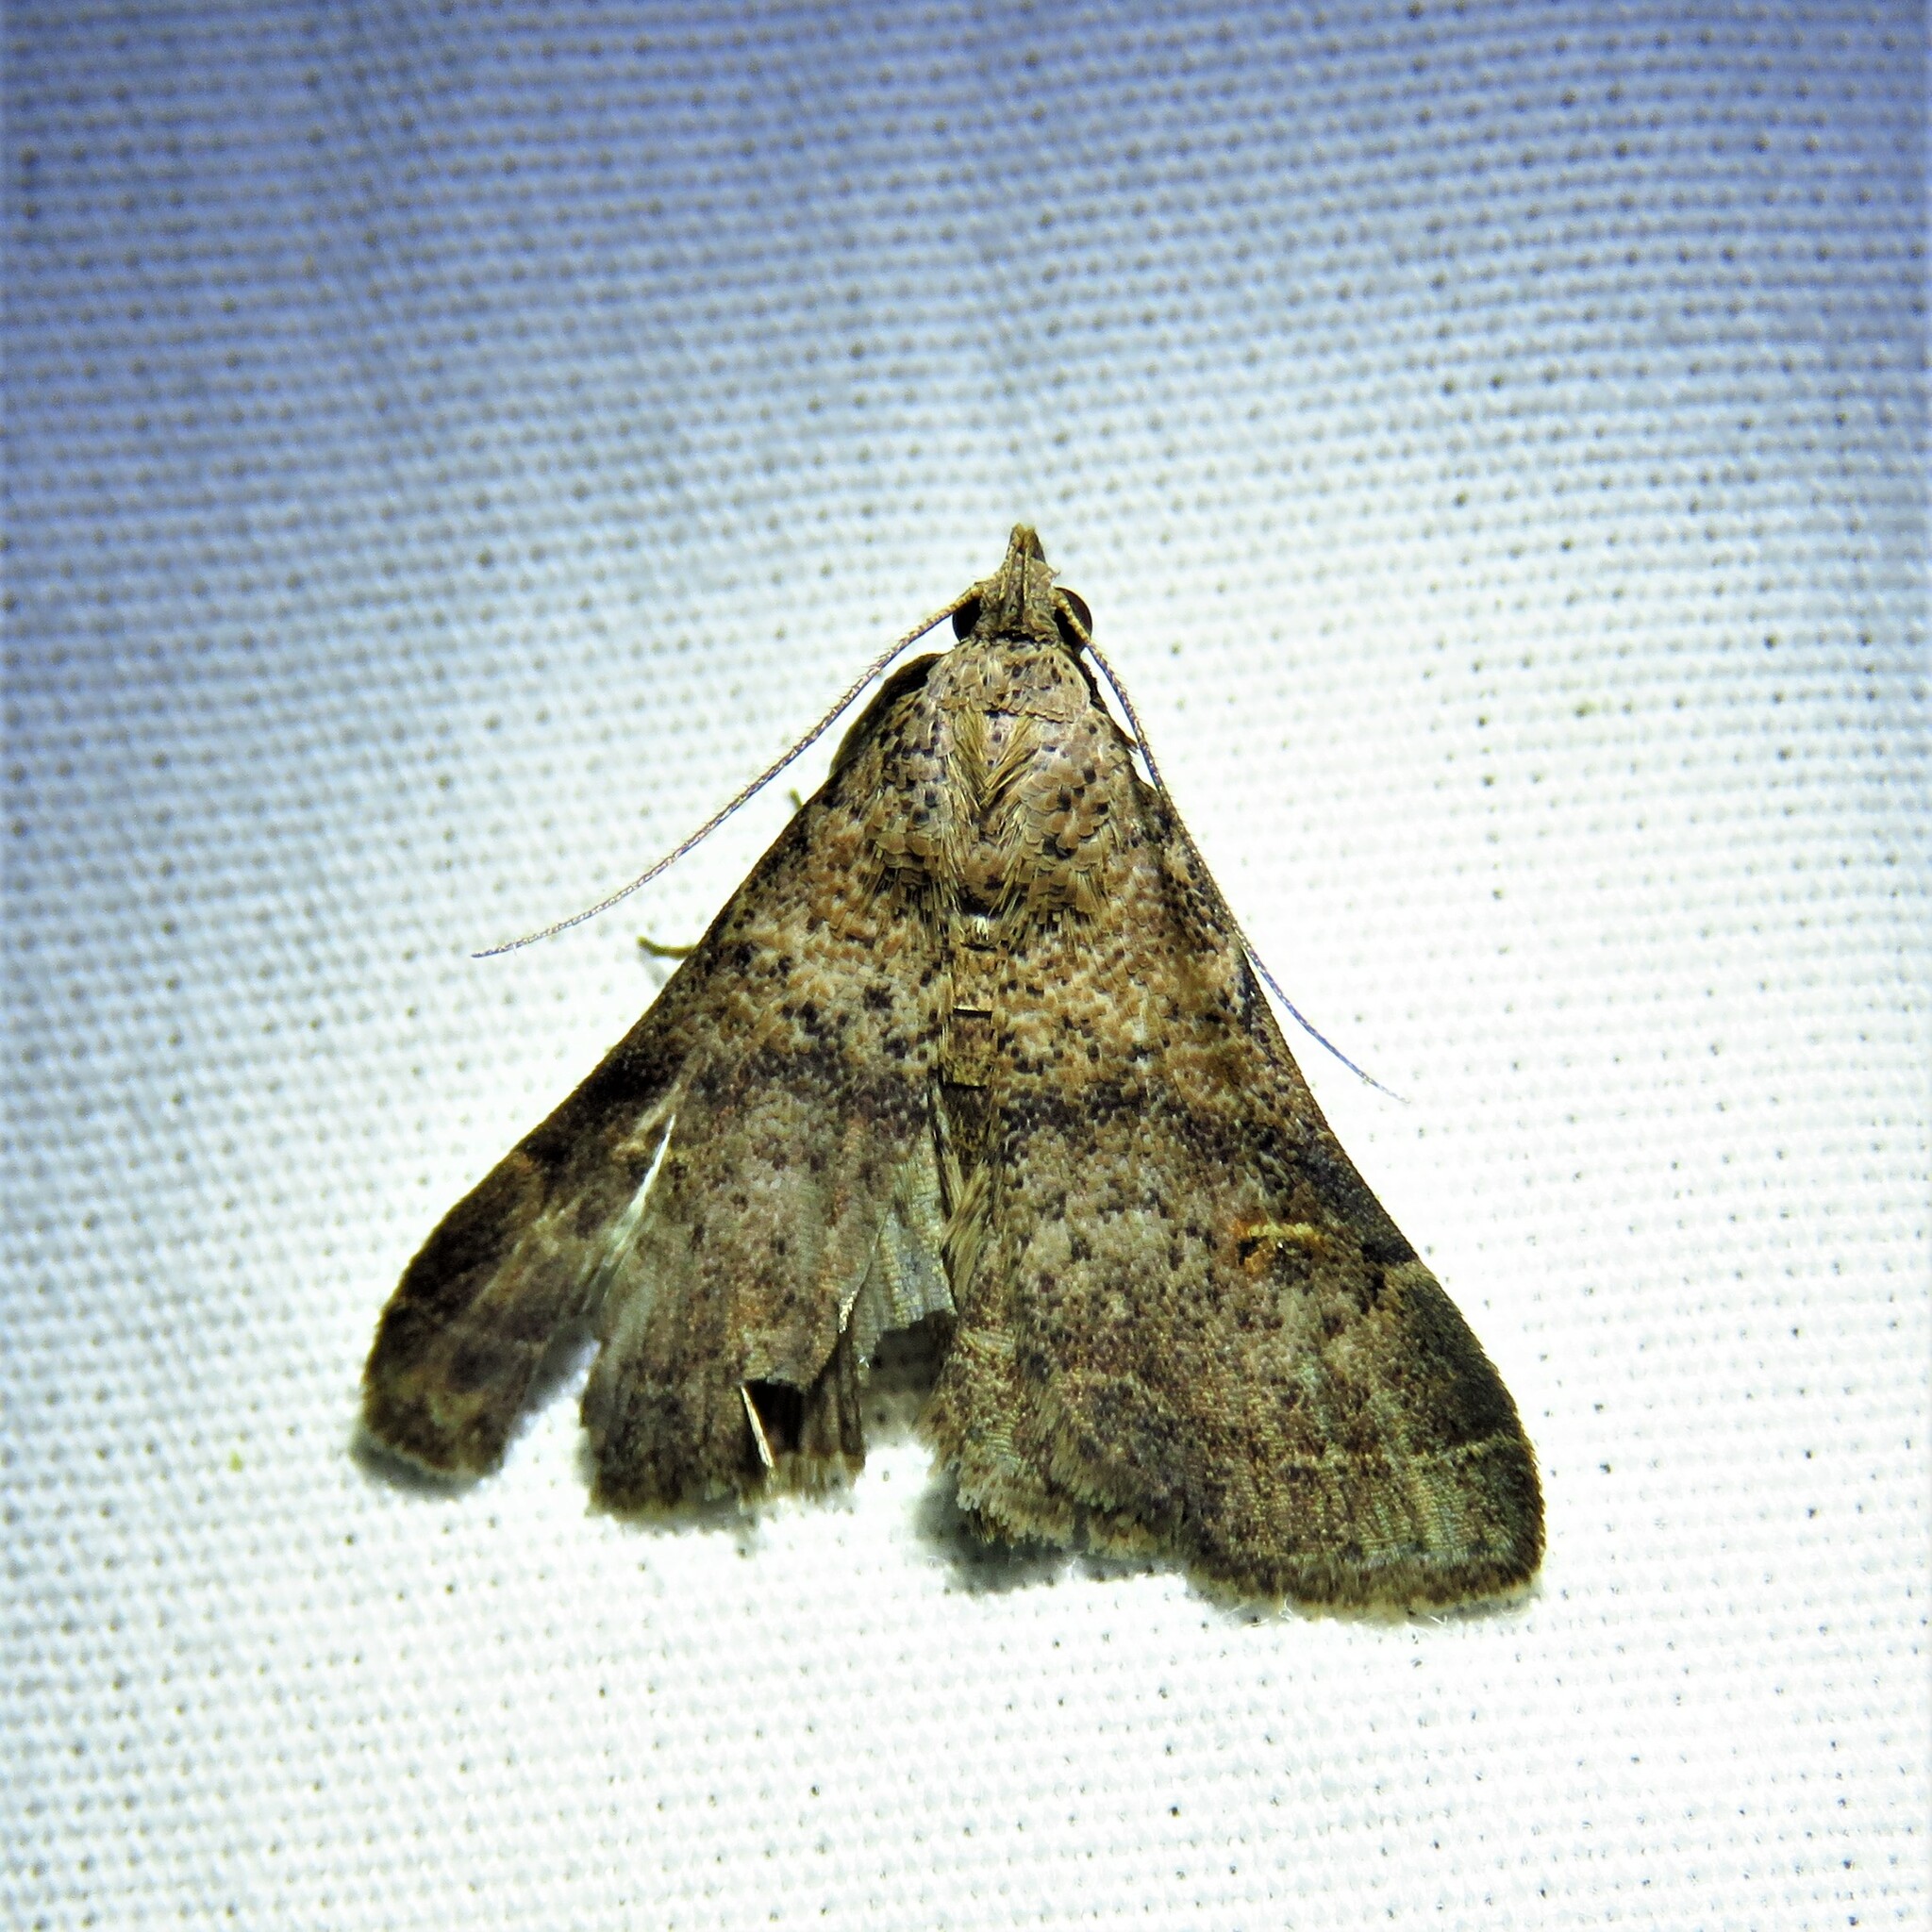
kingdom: Animalia
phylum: Arthropoda
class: Insecta
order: Lepidoptera
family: Erebidae
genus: Bleptina
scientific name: Bleptina caradrinalis
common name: Bent-winged owlet
